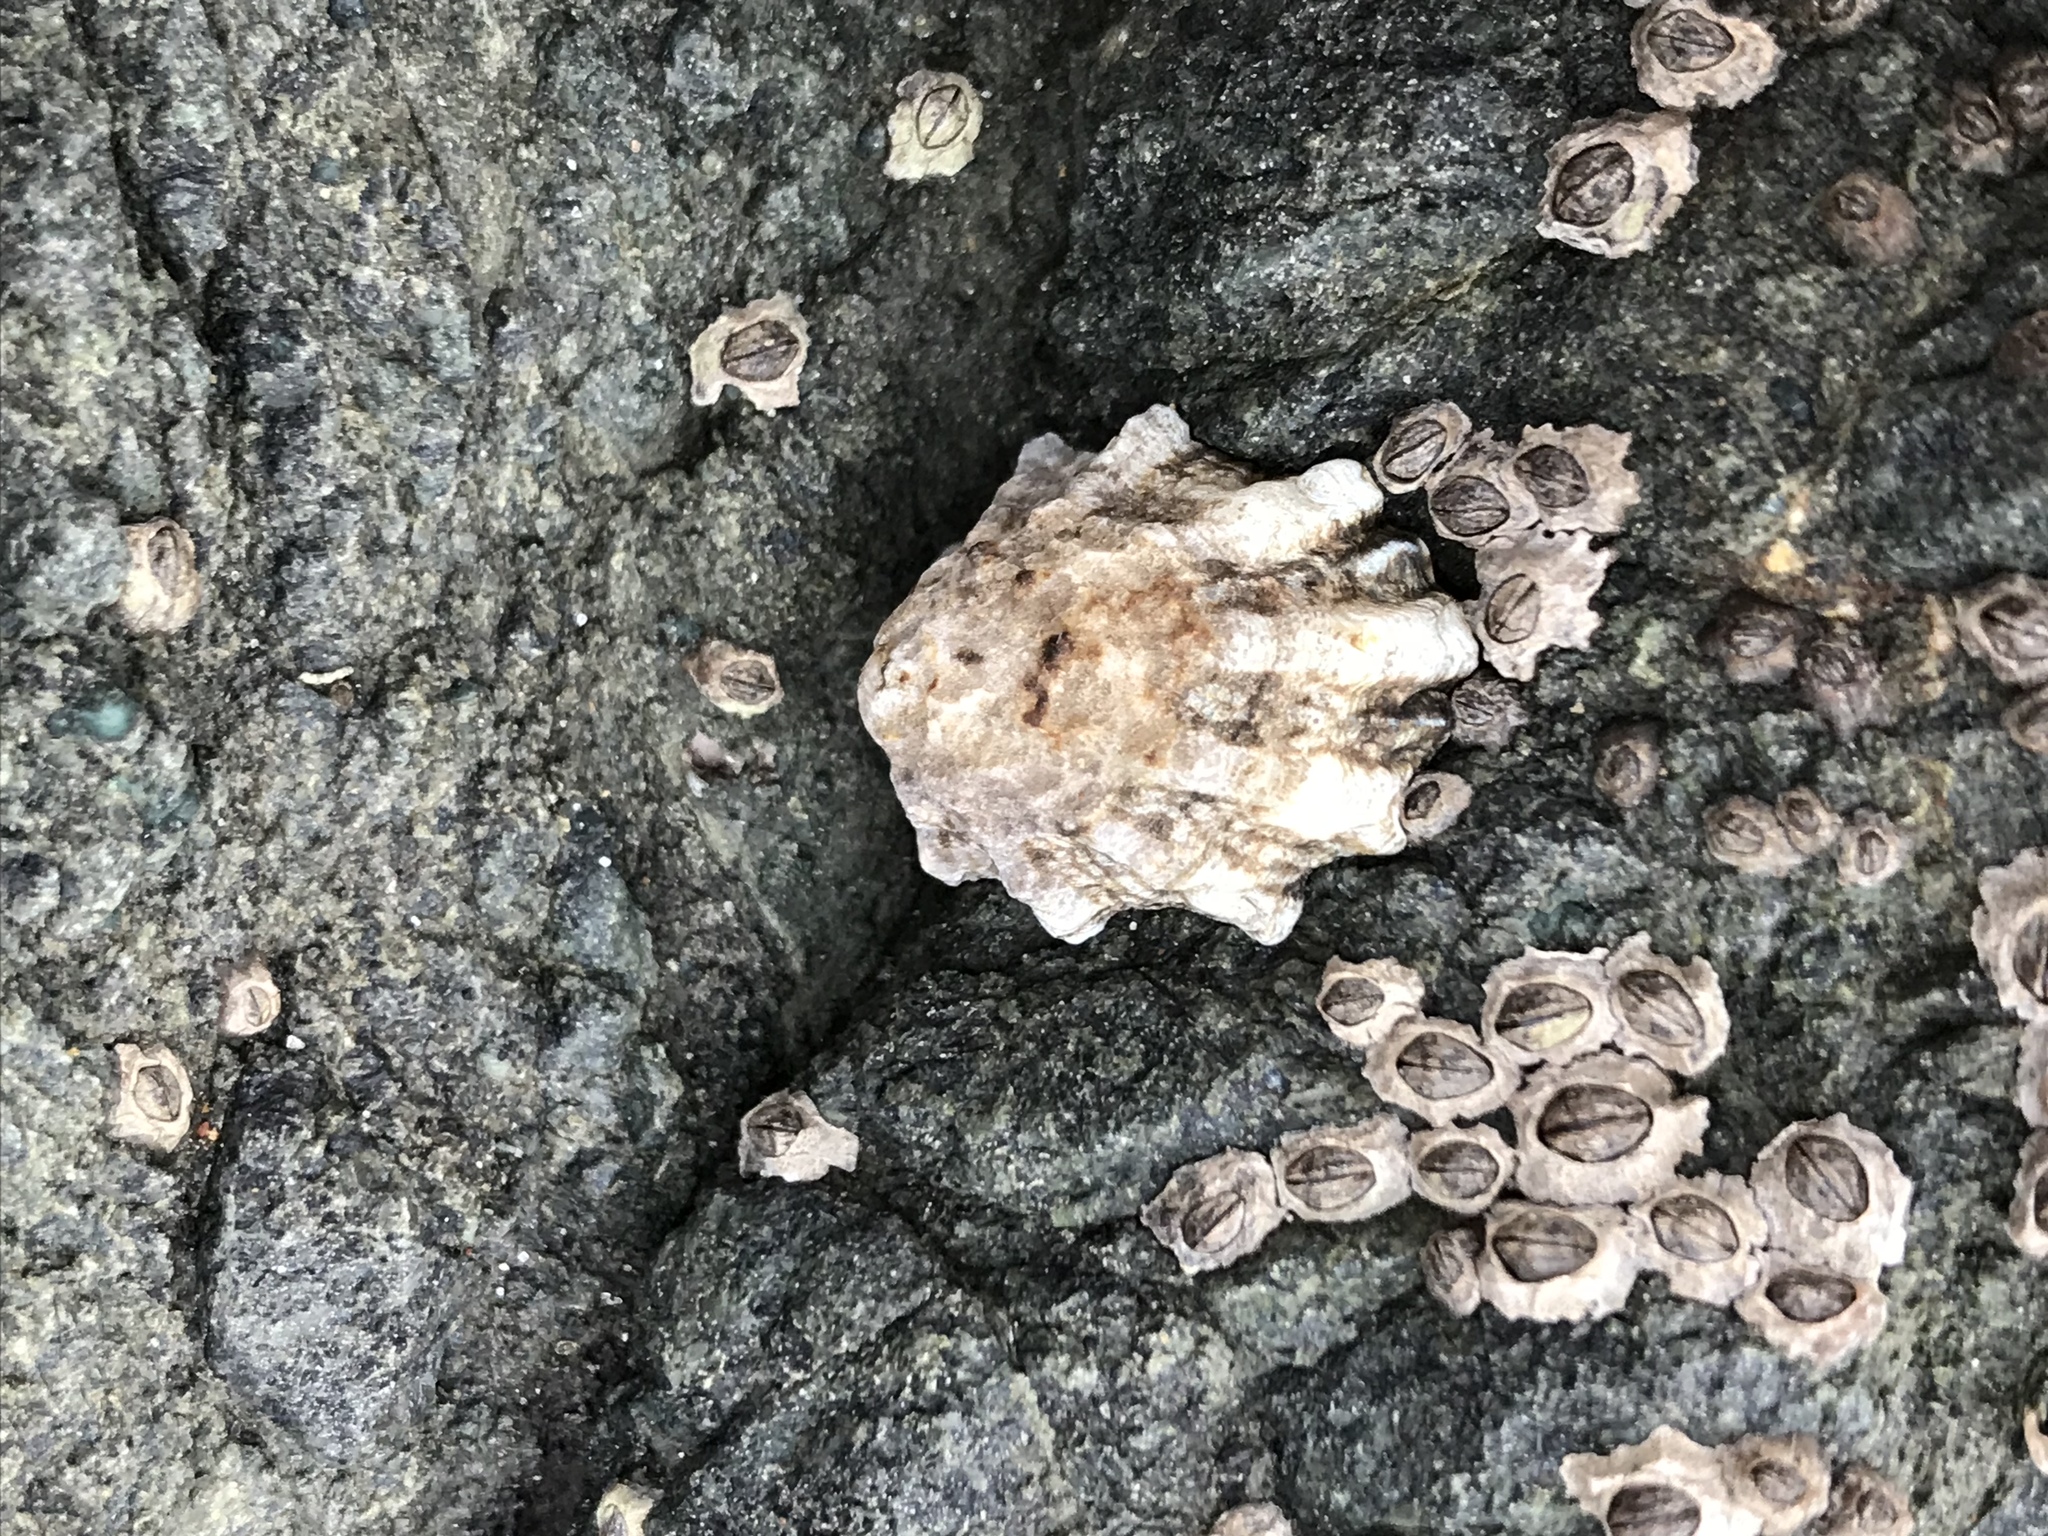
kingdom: Animalia
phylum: Mollusca
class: Gastropoda
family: Lottiidae
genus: Lottia
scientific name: Lottia scabra
